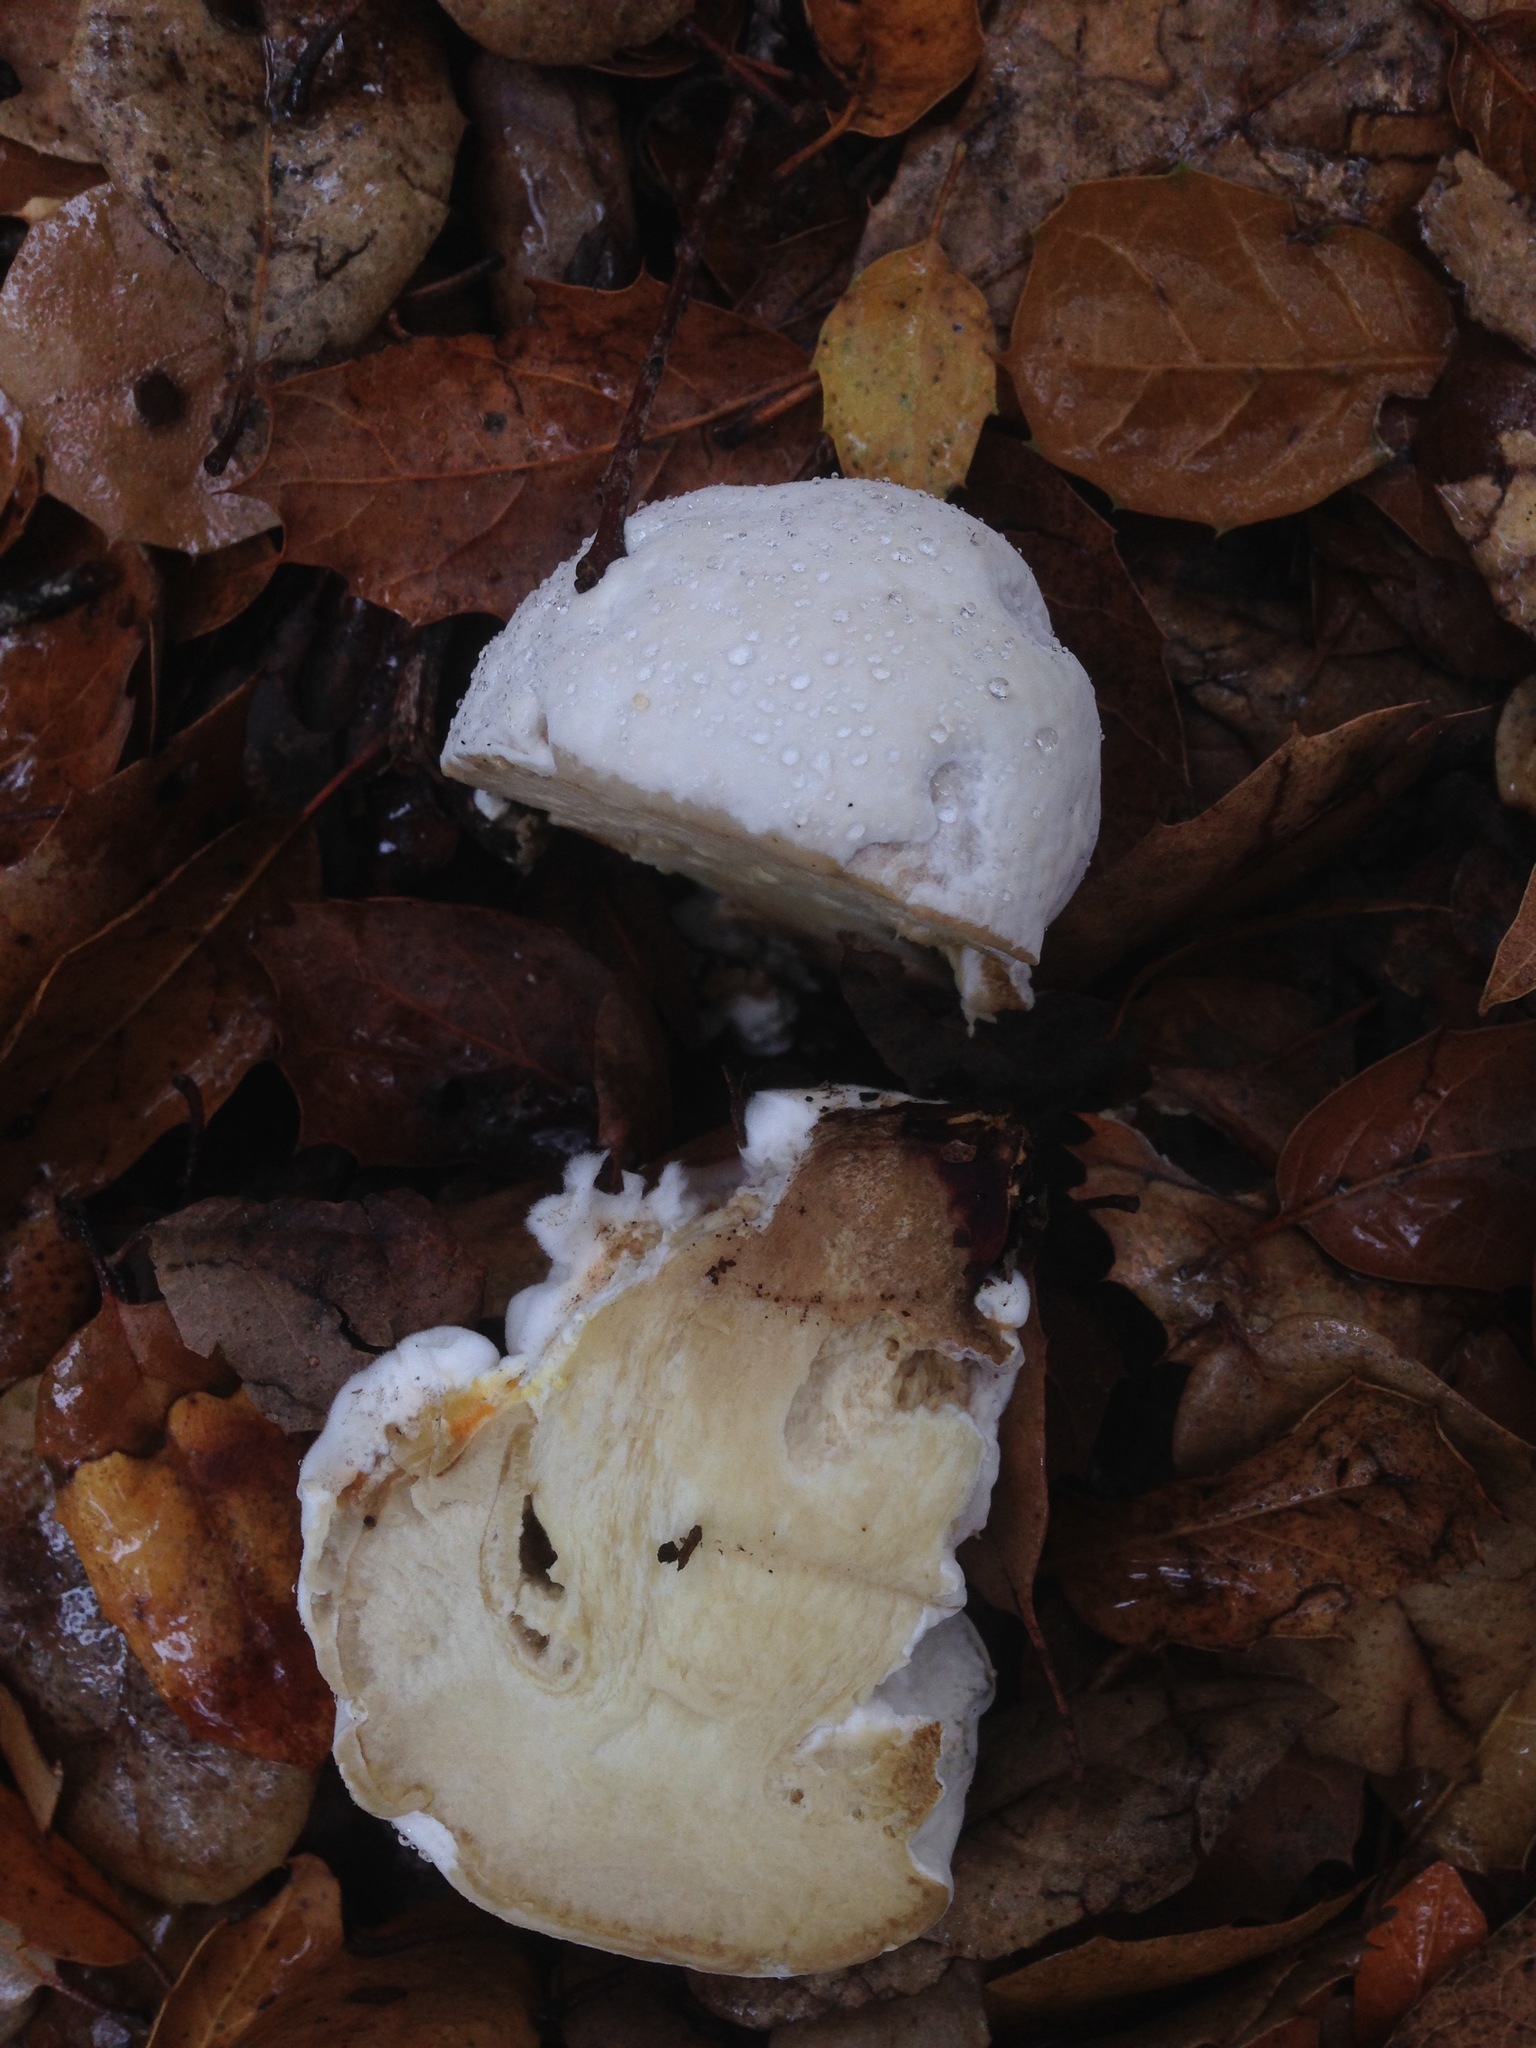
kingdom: Fungi
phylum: Ascomycota
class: Sordariomycetes
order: Hypocreales
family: Hypocreaceae
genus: Hypomyces
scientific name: Hypomyces chrysospermus
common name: Bolete mould
